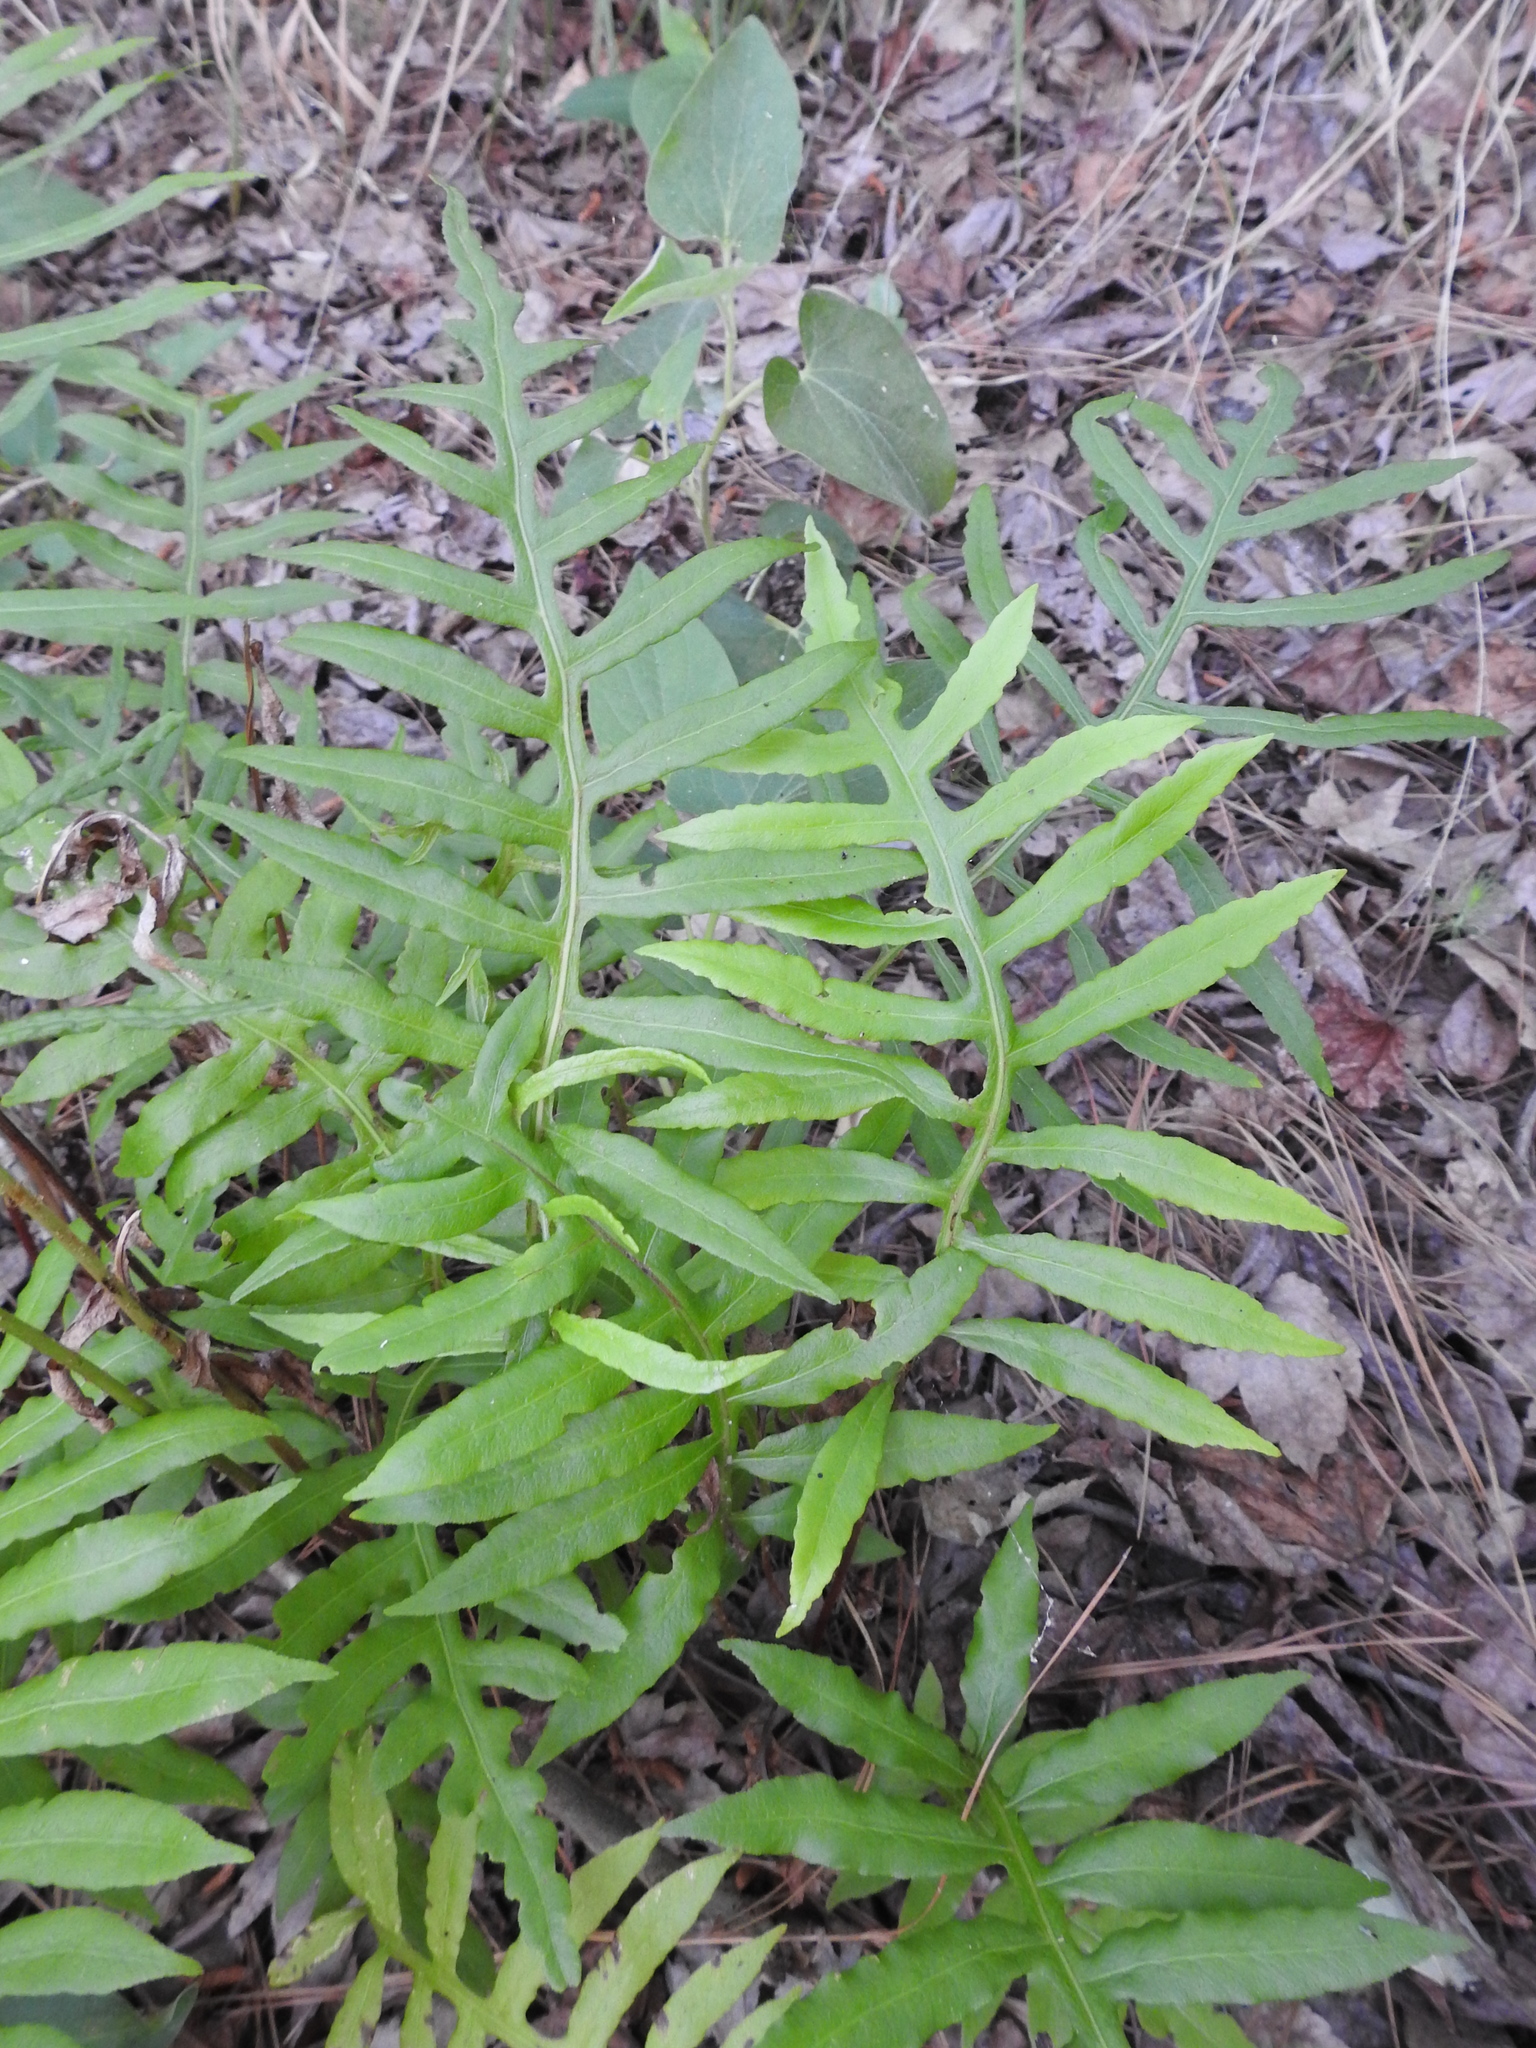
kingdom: Plantae
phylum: Tracheophyta
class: Polypodiopsida
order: Polypodiales
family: Blechnaceae
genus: Lorinseria
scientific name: Lorinseria areolata
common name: Dwarf chain fern
